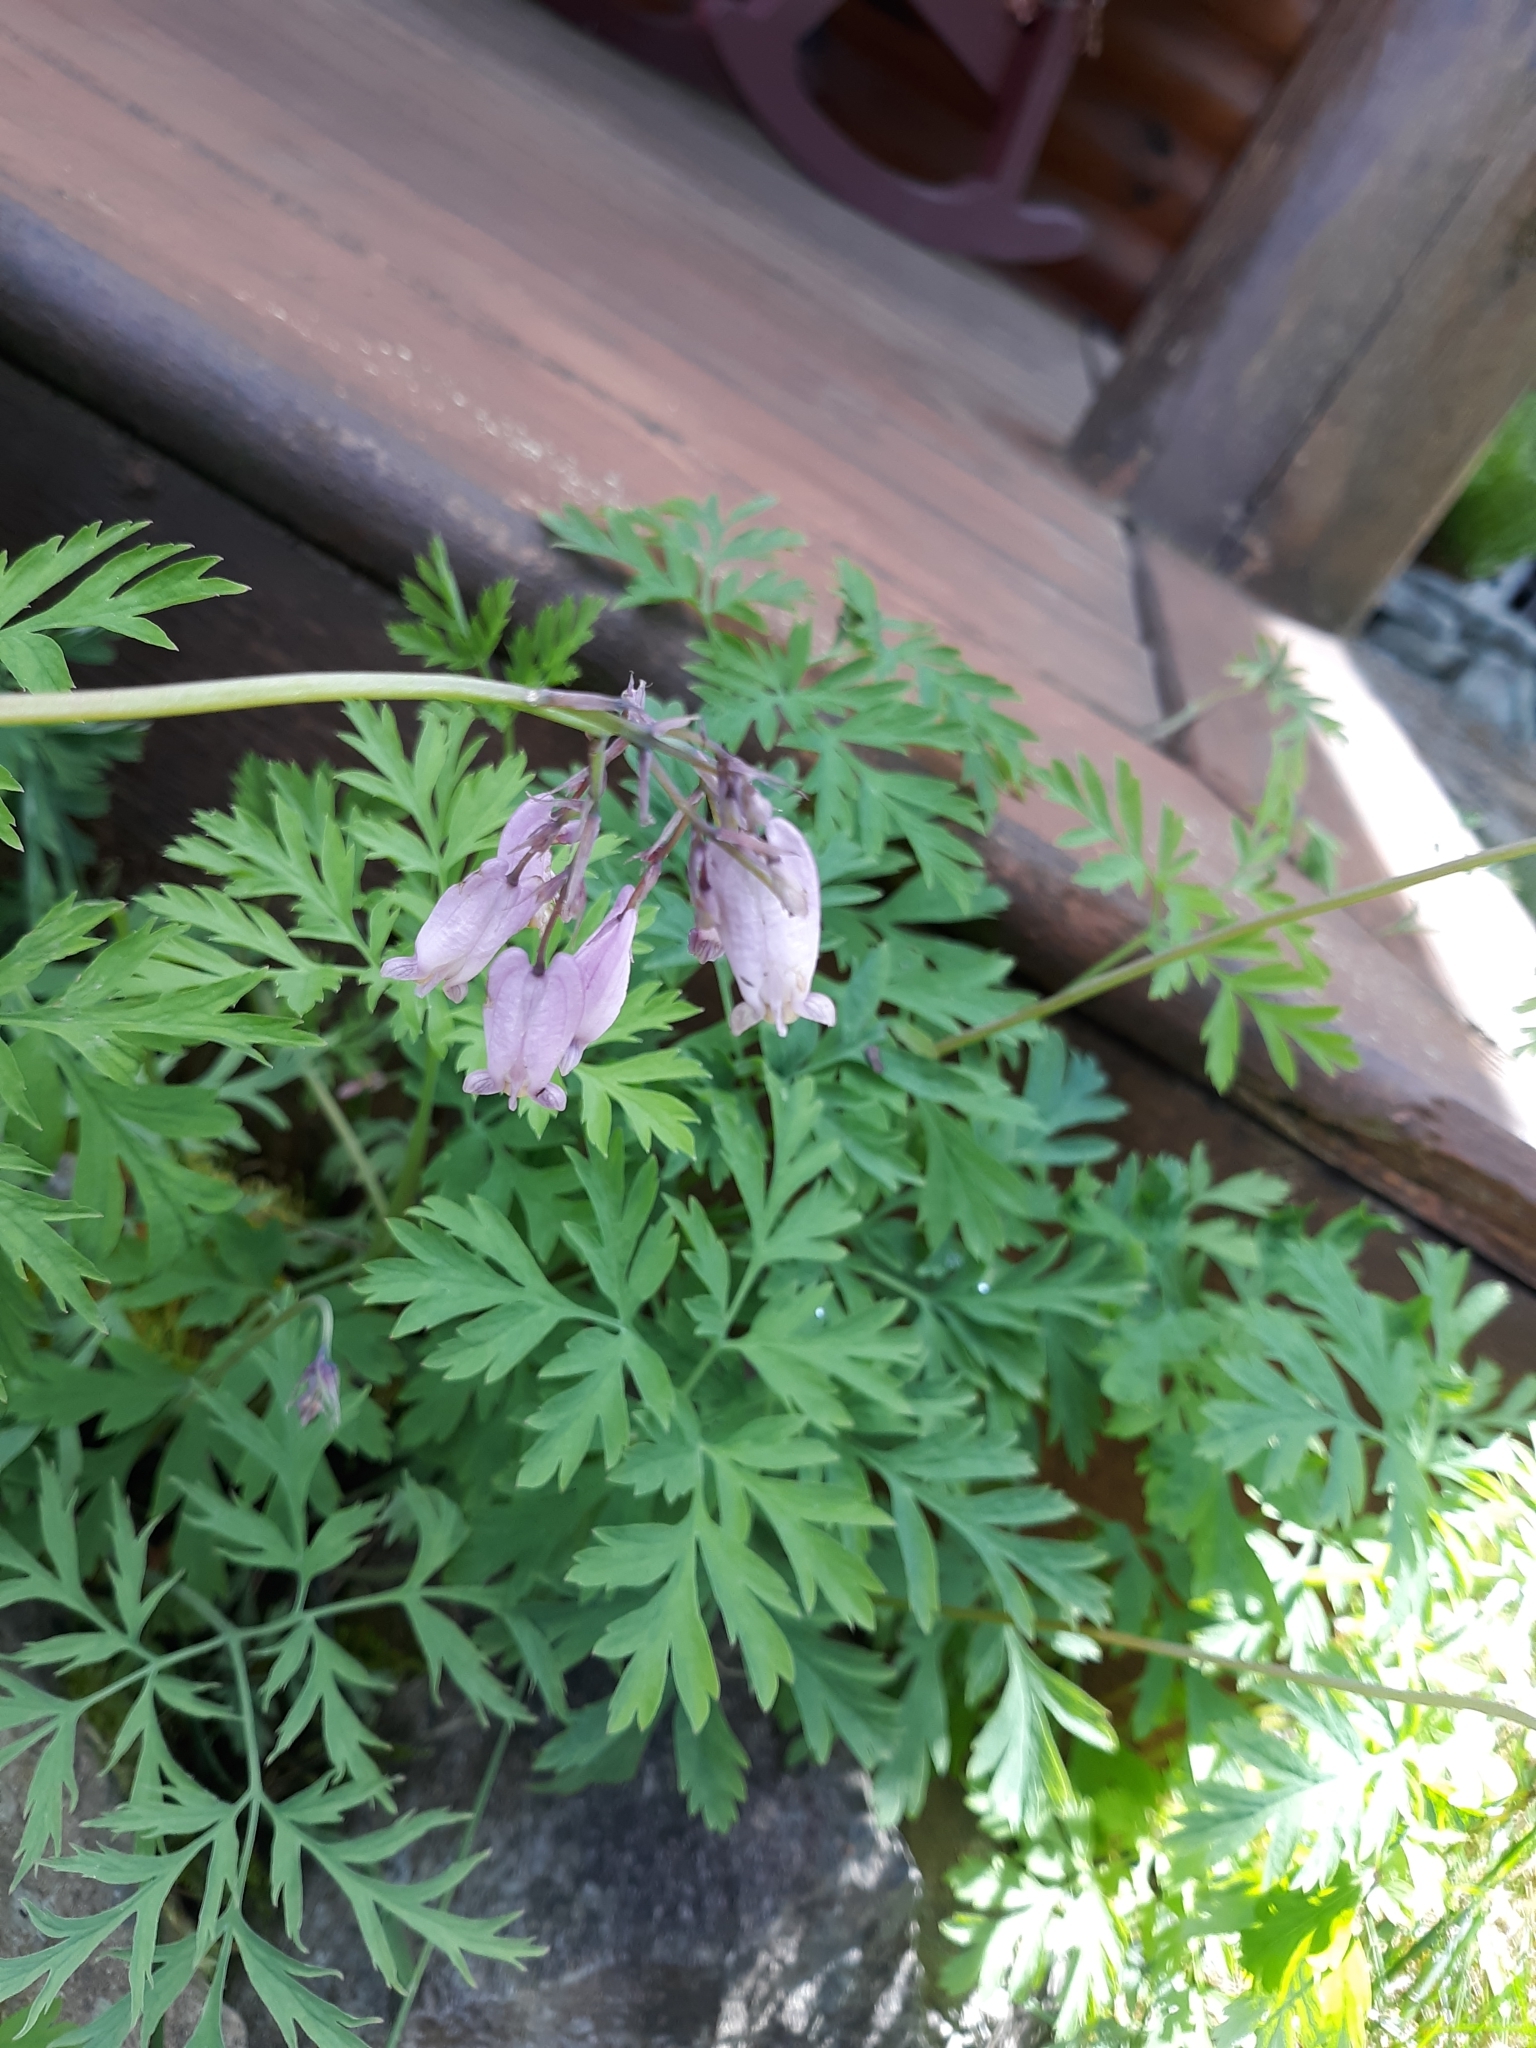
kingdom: Plantae
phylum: Tracheophyta
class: Magnoliopsida
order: Ranunculales
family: Papaveraceae
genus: Dicentra
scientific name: Dicentra formosa
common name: Bleeding-heart
